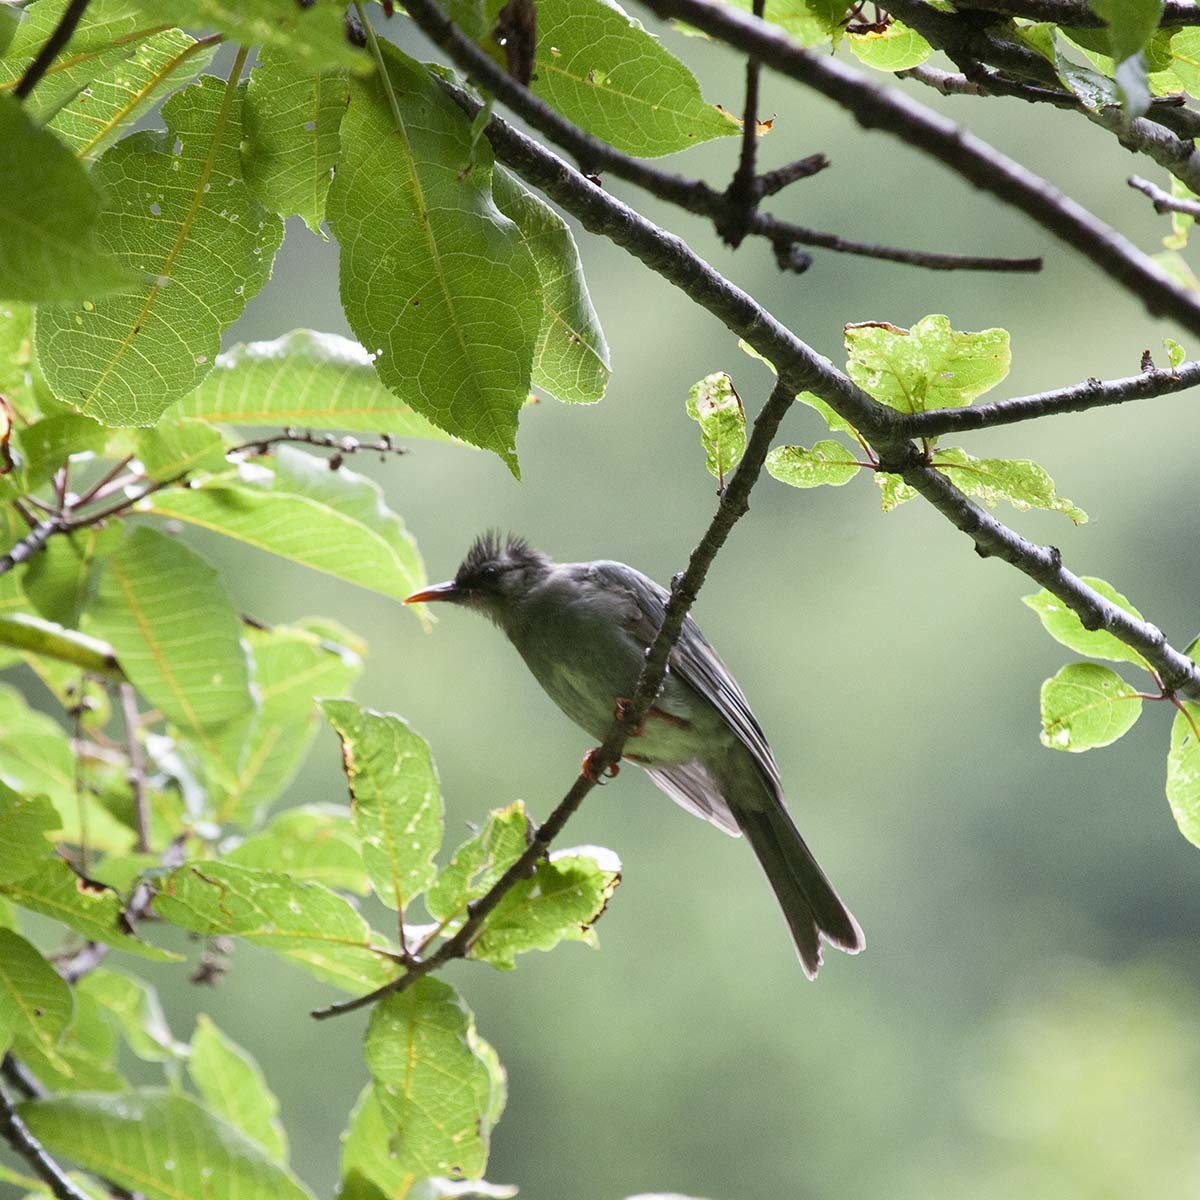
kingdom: Animalia
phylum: Chordata
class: Aves
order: Passeriformes
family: Pycnonotidae
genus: Hypsipetes
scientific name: Hypsipetes leucocephalus
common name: Black bulbul
